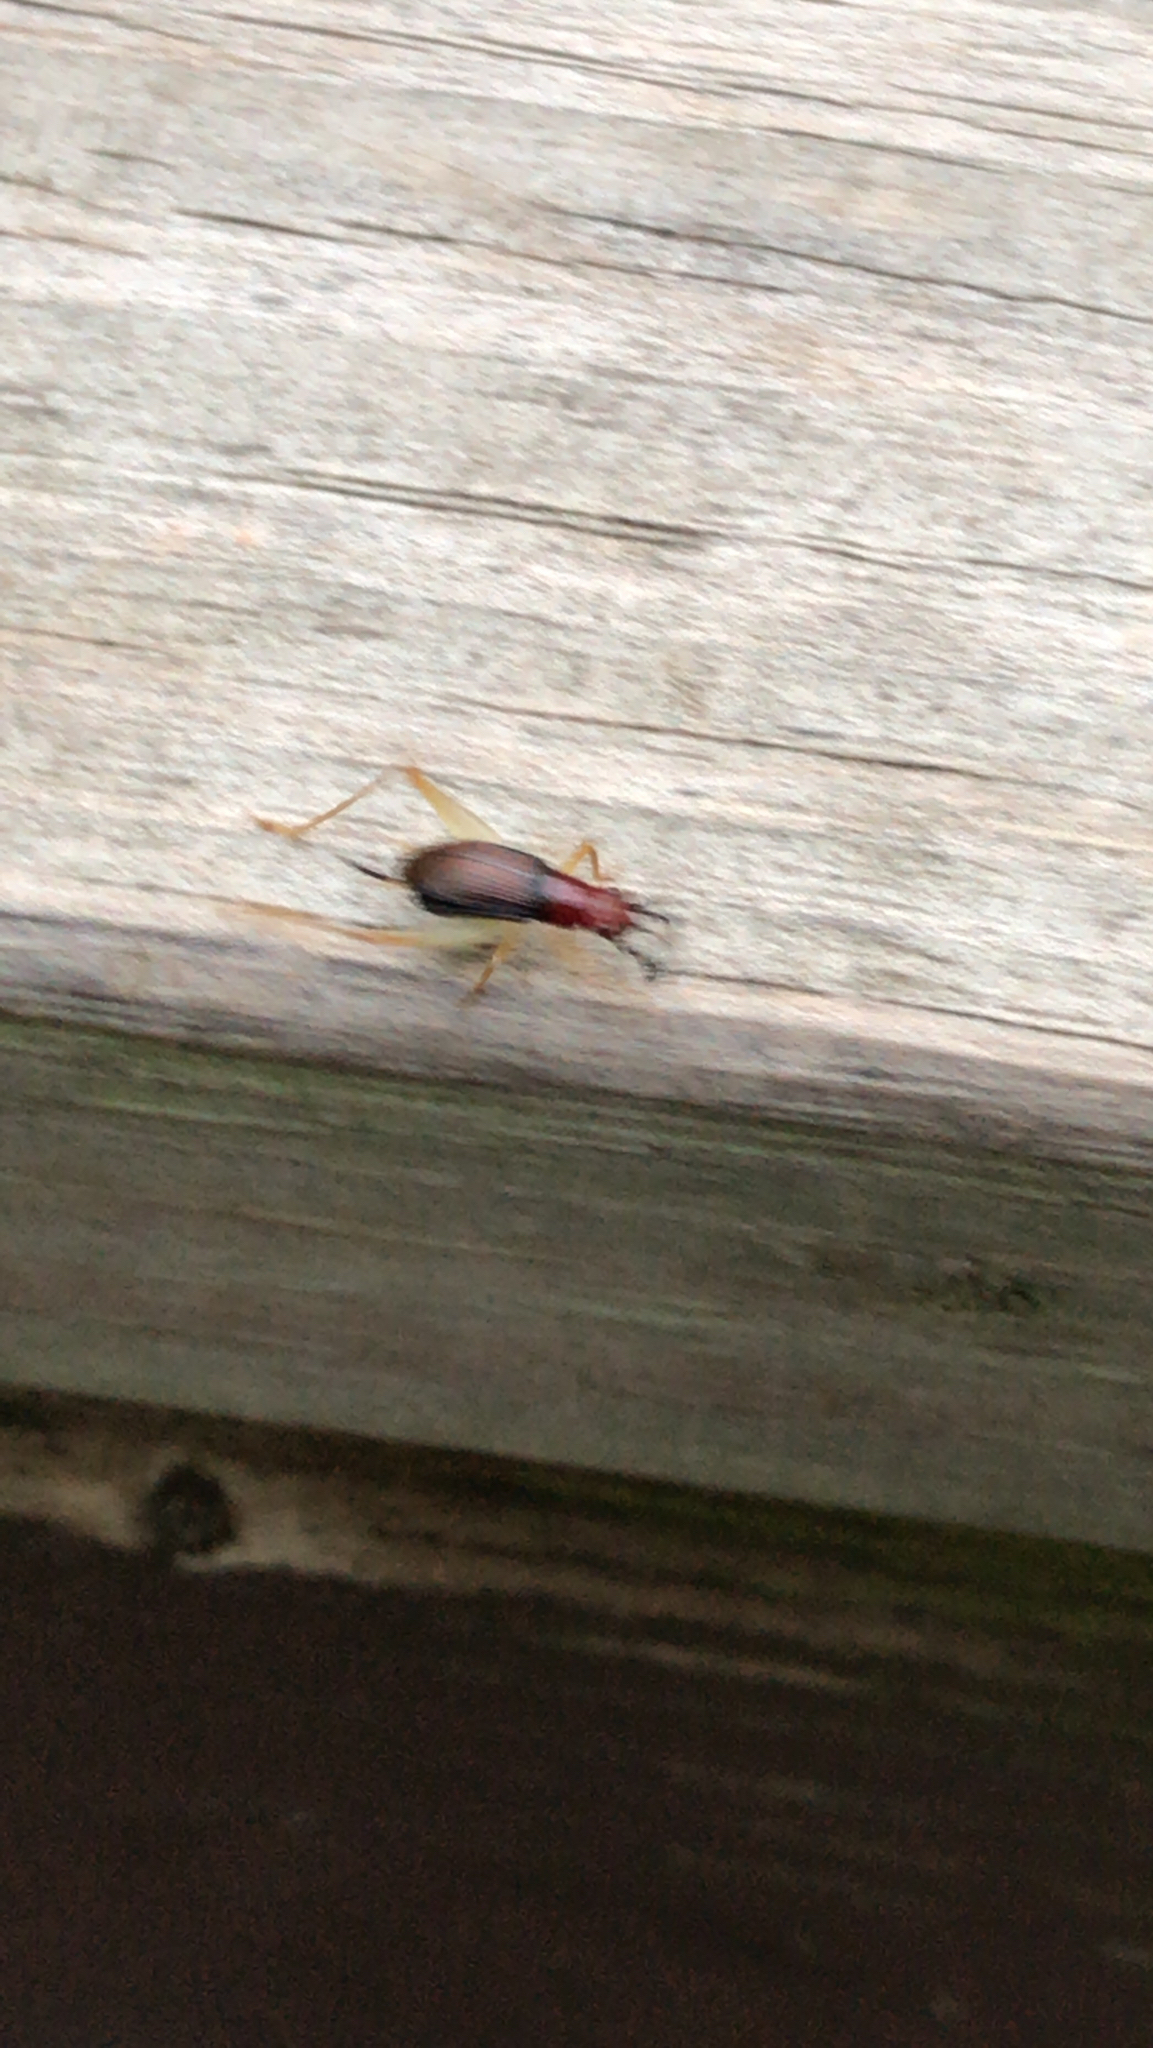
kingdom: Animalia
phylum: Arthropoda
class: Insecta
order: Orthoptera
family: Trigonidiidae
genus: Phyllopalpus
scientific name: Phyllopalpus pulchellus
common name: Handsome trig
